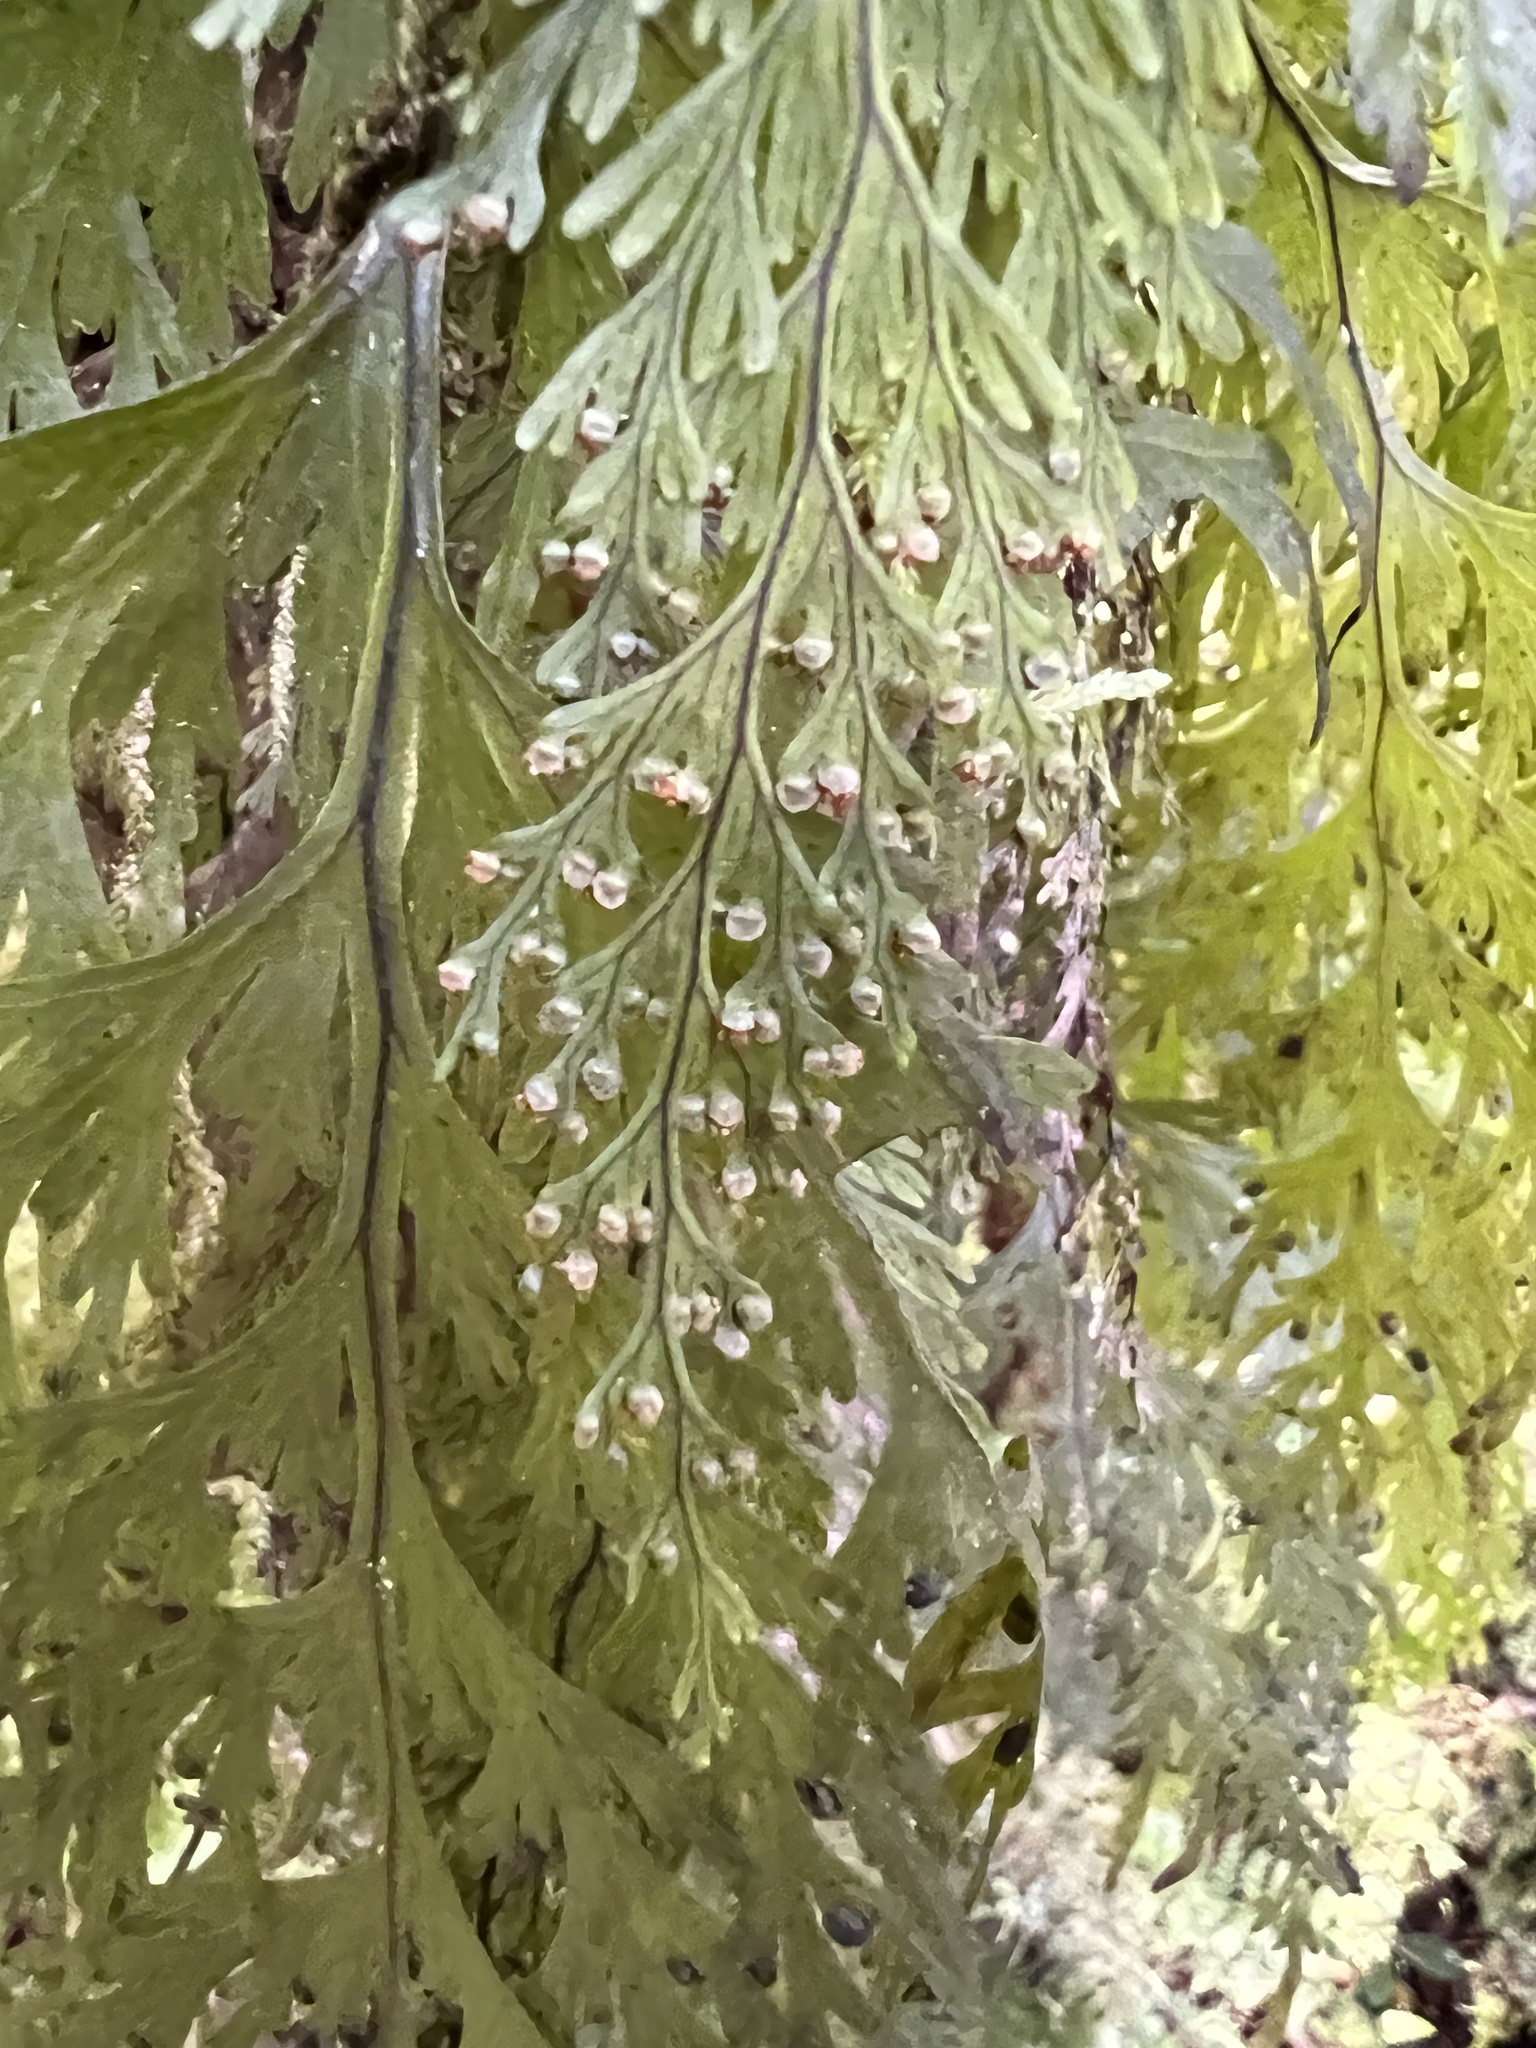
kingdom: Plantae
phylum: Tracheophyta
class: Polypodiopsida
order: Hymenophyllales
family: Hymenophyllaceae
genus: Hymenophyllum
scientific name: Hymenophyllum dilatatum
